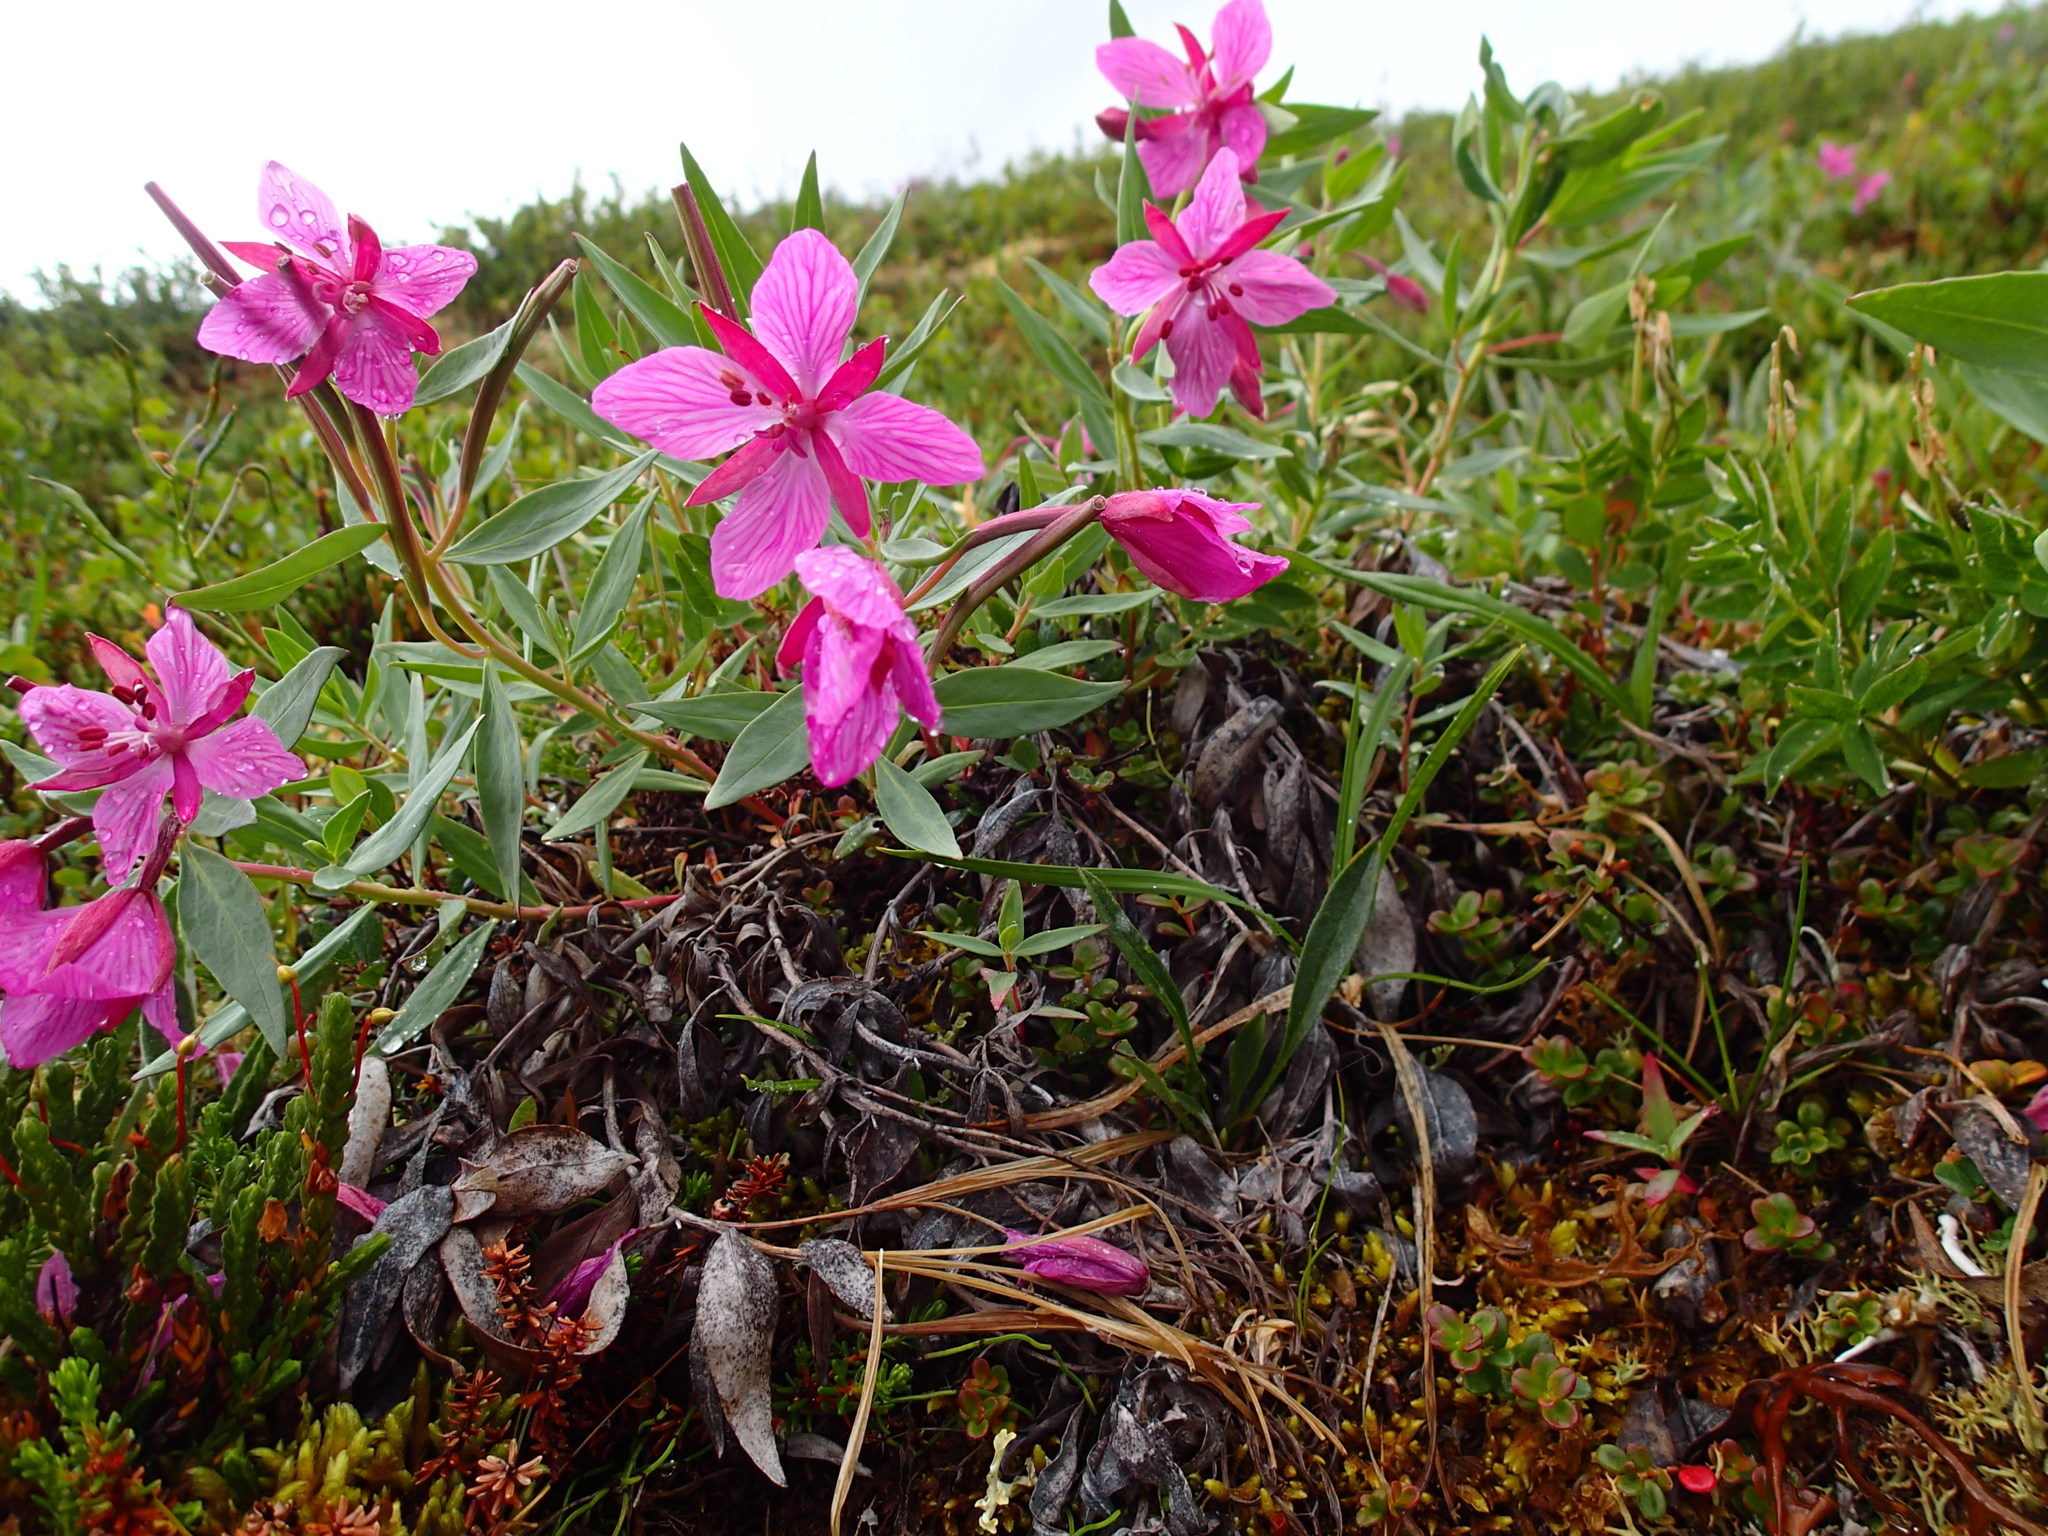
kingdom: Plantae
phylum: Tracheophyta
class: Magnoliopsida
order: Myrtales
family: Onagraceae
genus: Chamaenerion
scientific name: Chamaenerion latifolium
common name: Dwarf fireweed
